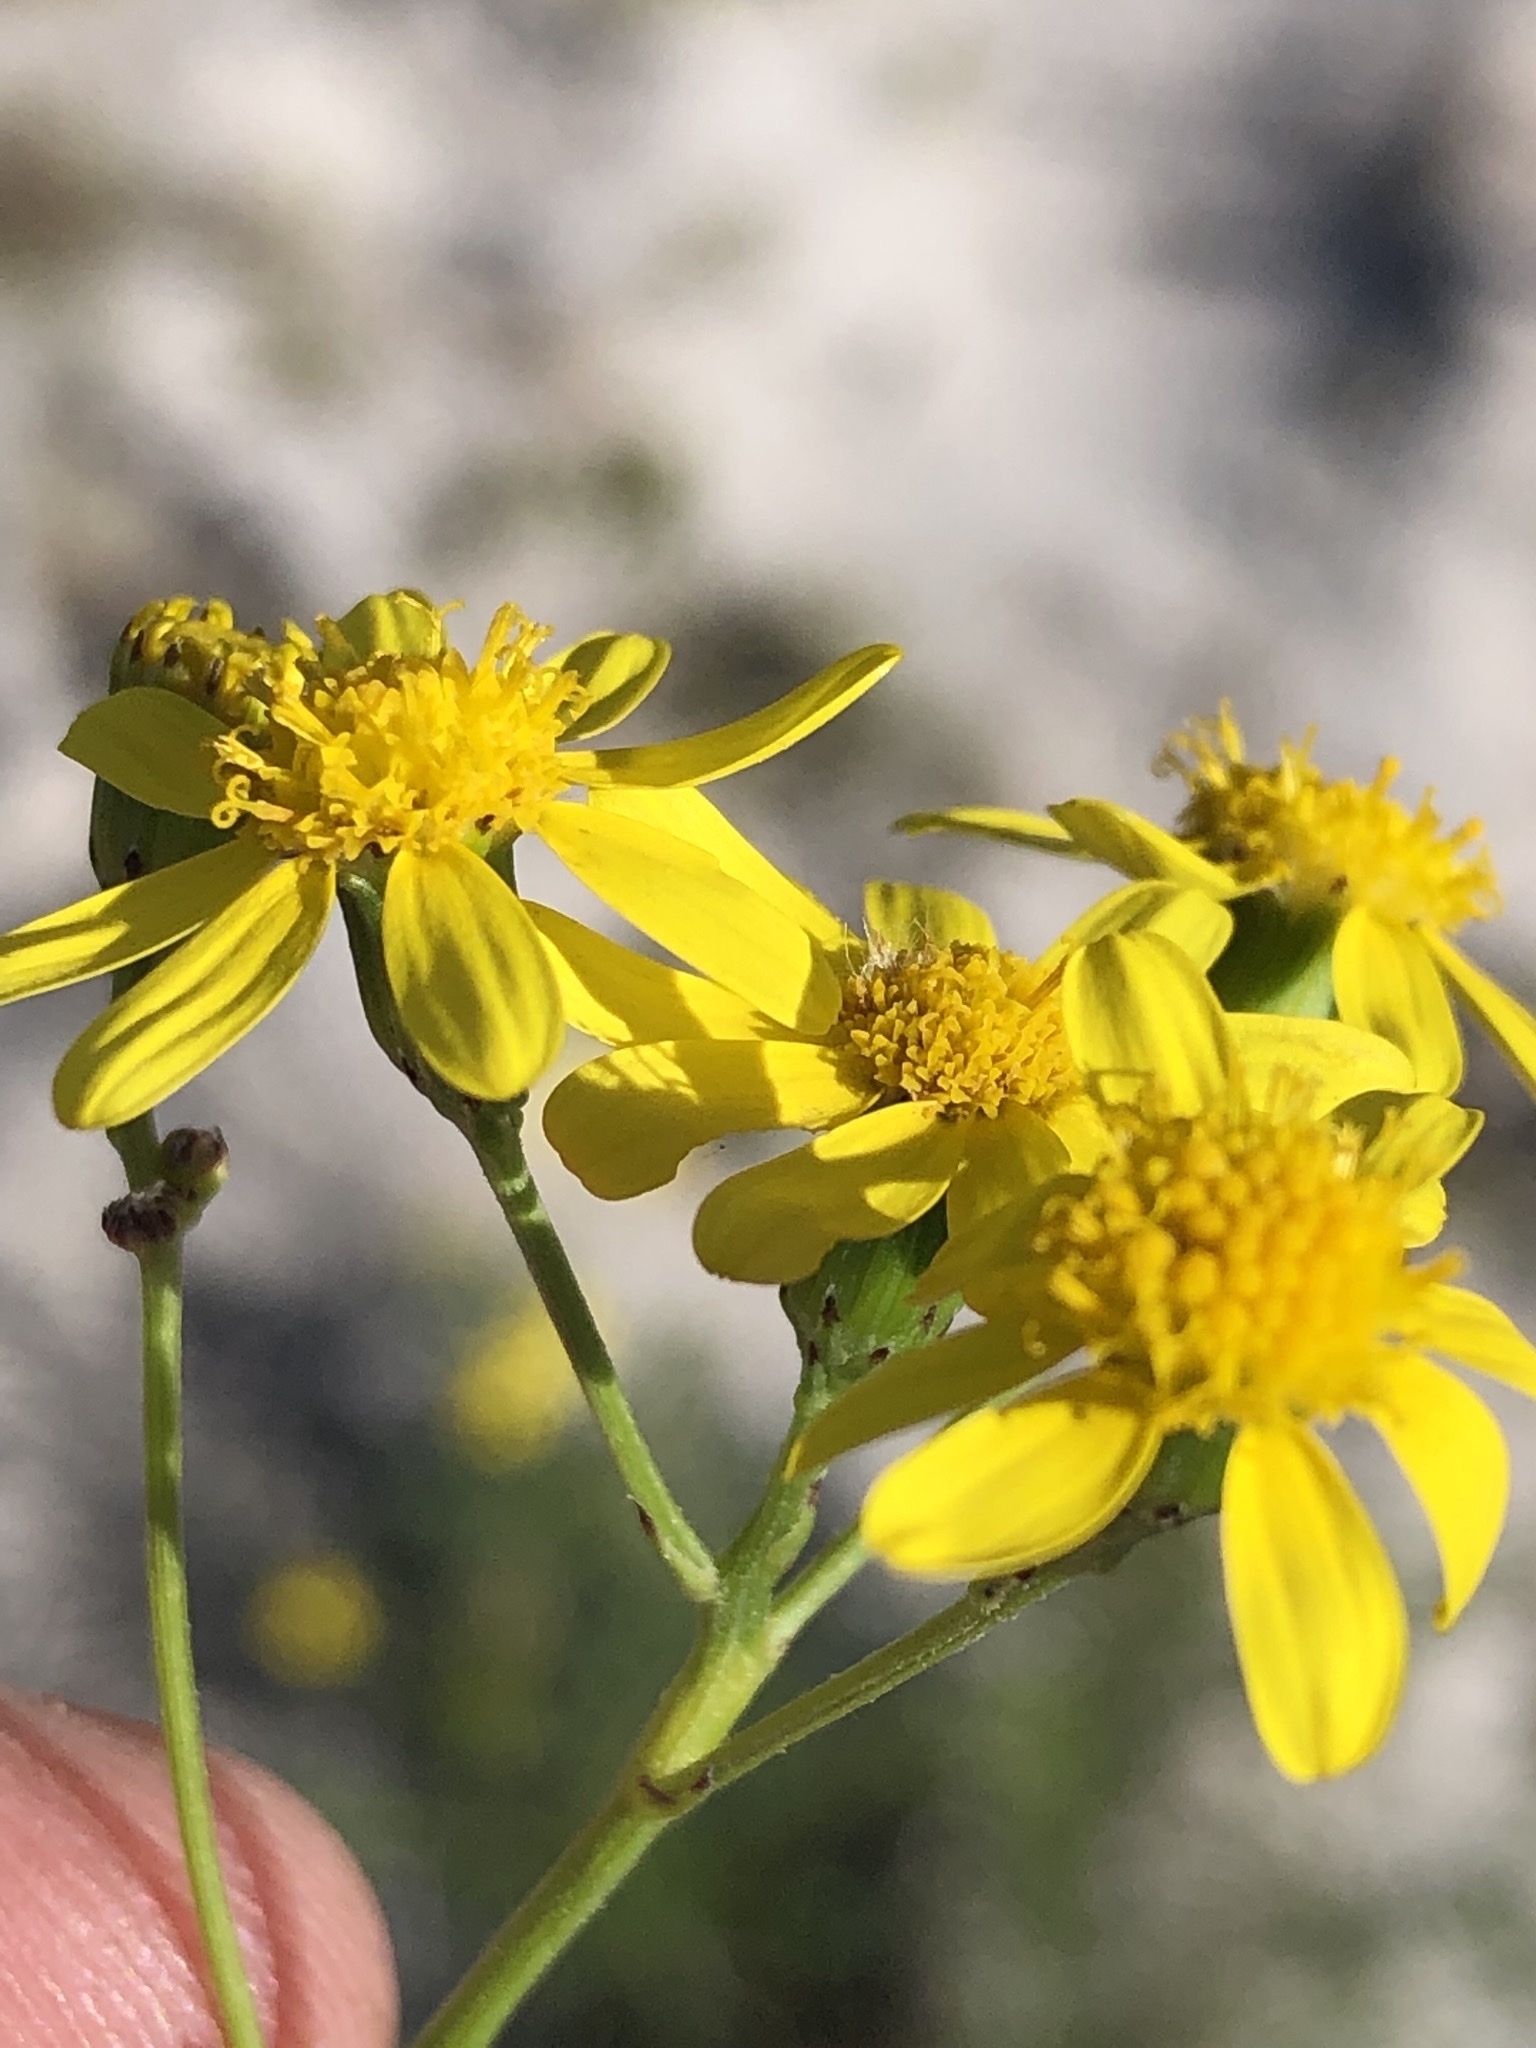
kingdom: Plantae
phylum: Tracheophyta
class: Magnoliopsida
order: Asterales
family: Asteraceae
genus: Senecio
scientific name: Senecio burchellii
